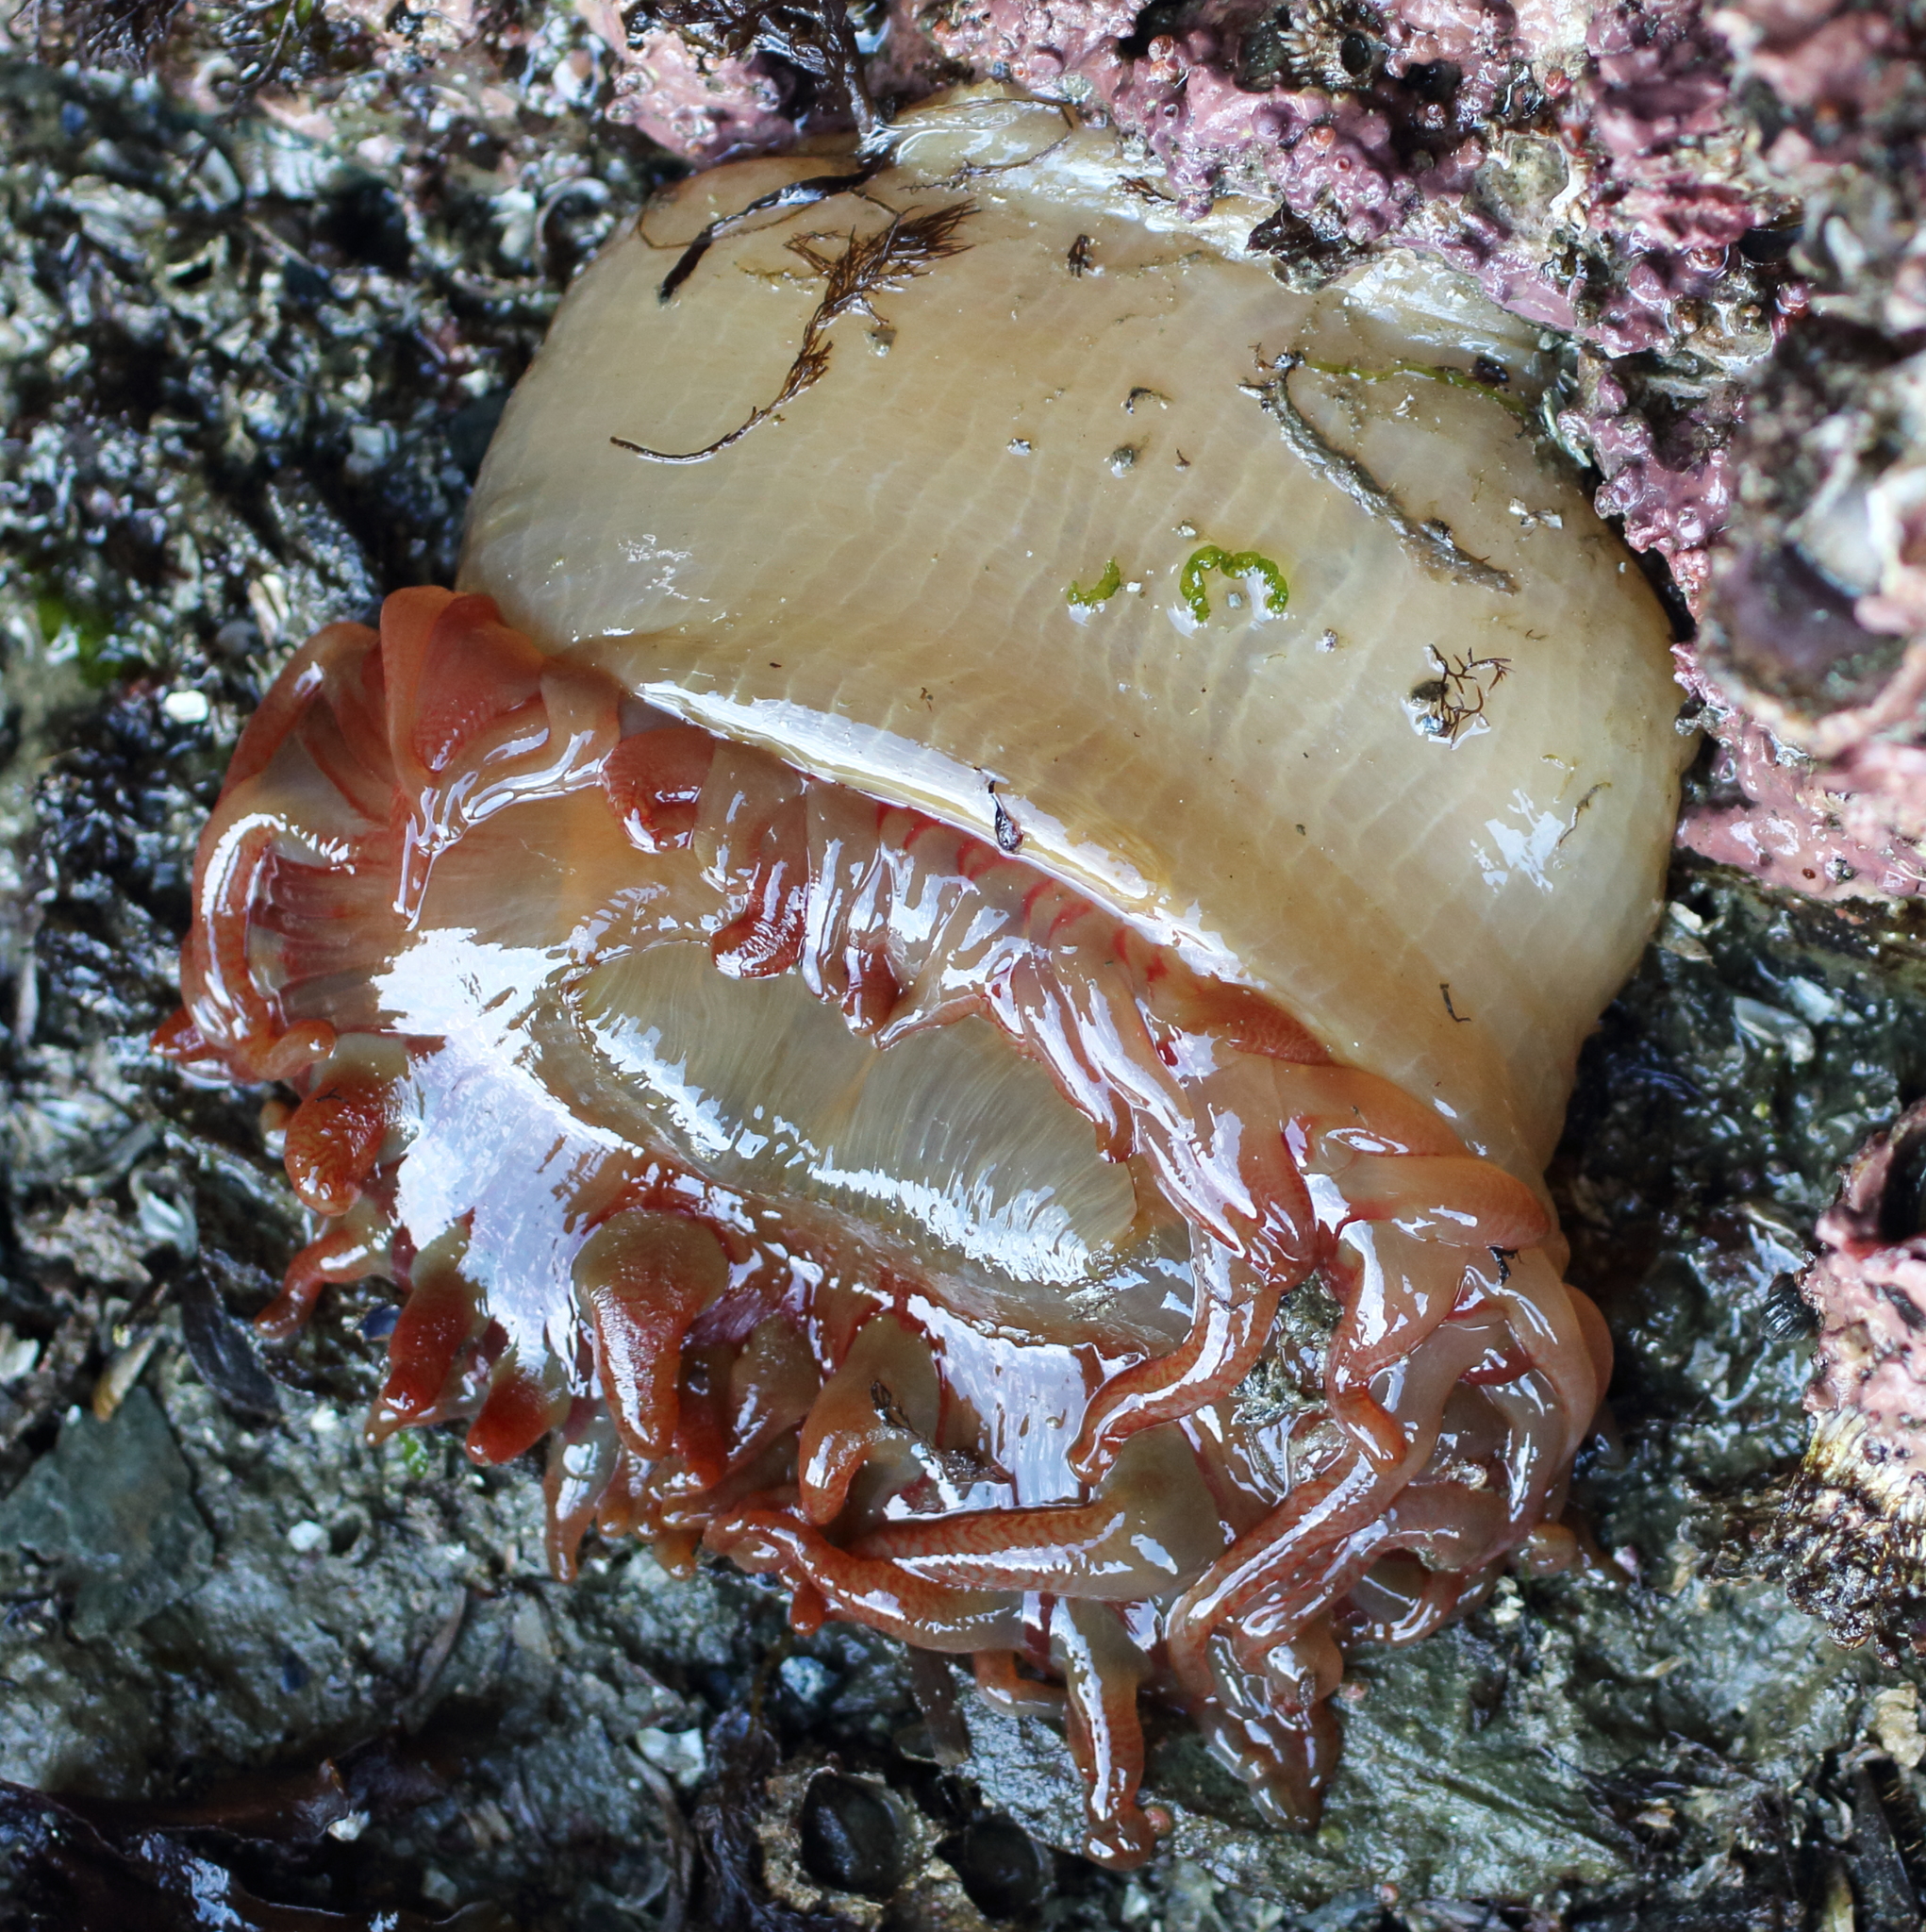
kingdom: Animalia
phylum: Cnidaria
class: Anthozoa
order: Actiniaria
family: Actiniidae
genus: Cribrinopsis
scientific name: Cribrinopsis fernaldi
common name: Chevron-tentacle anemone
